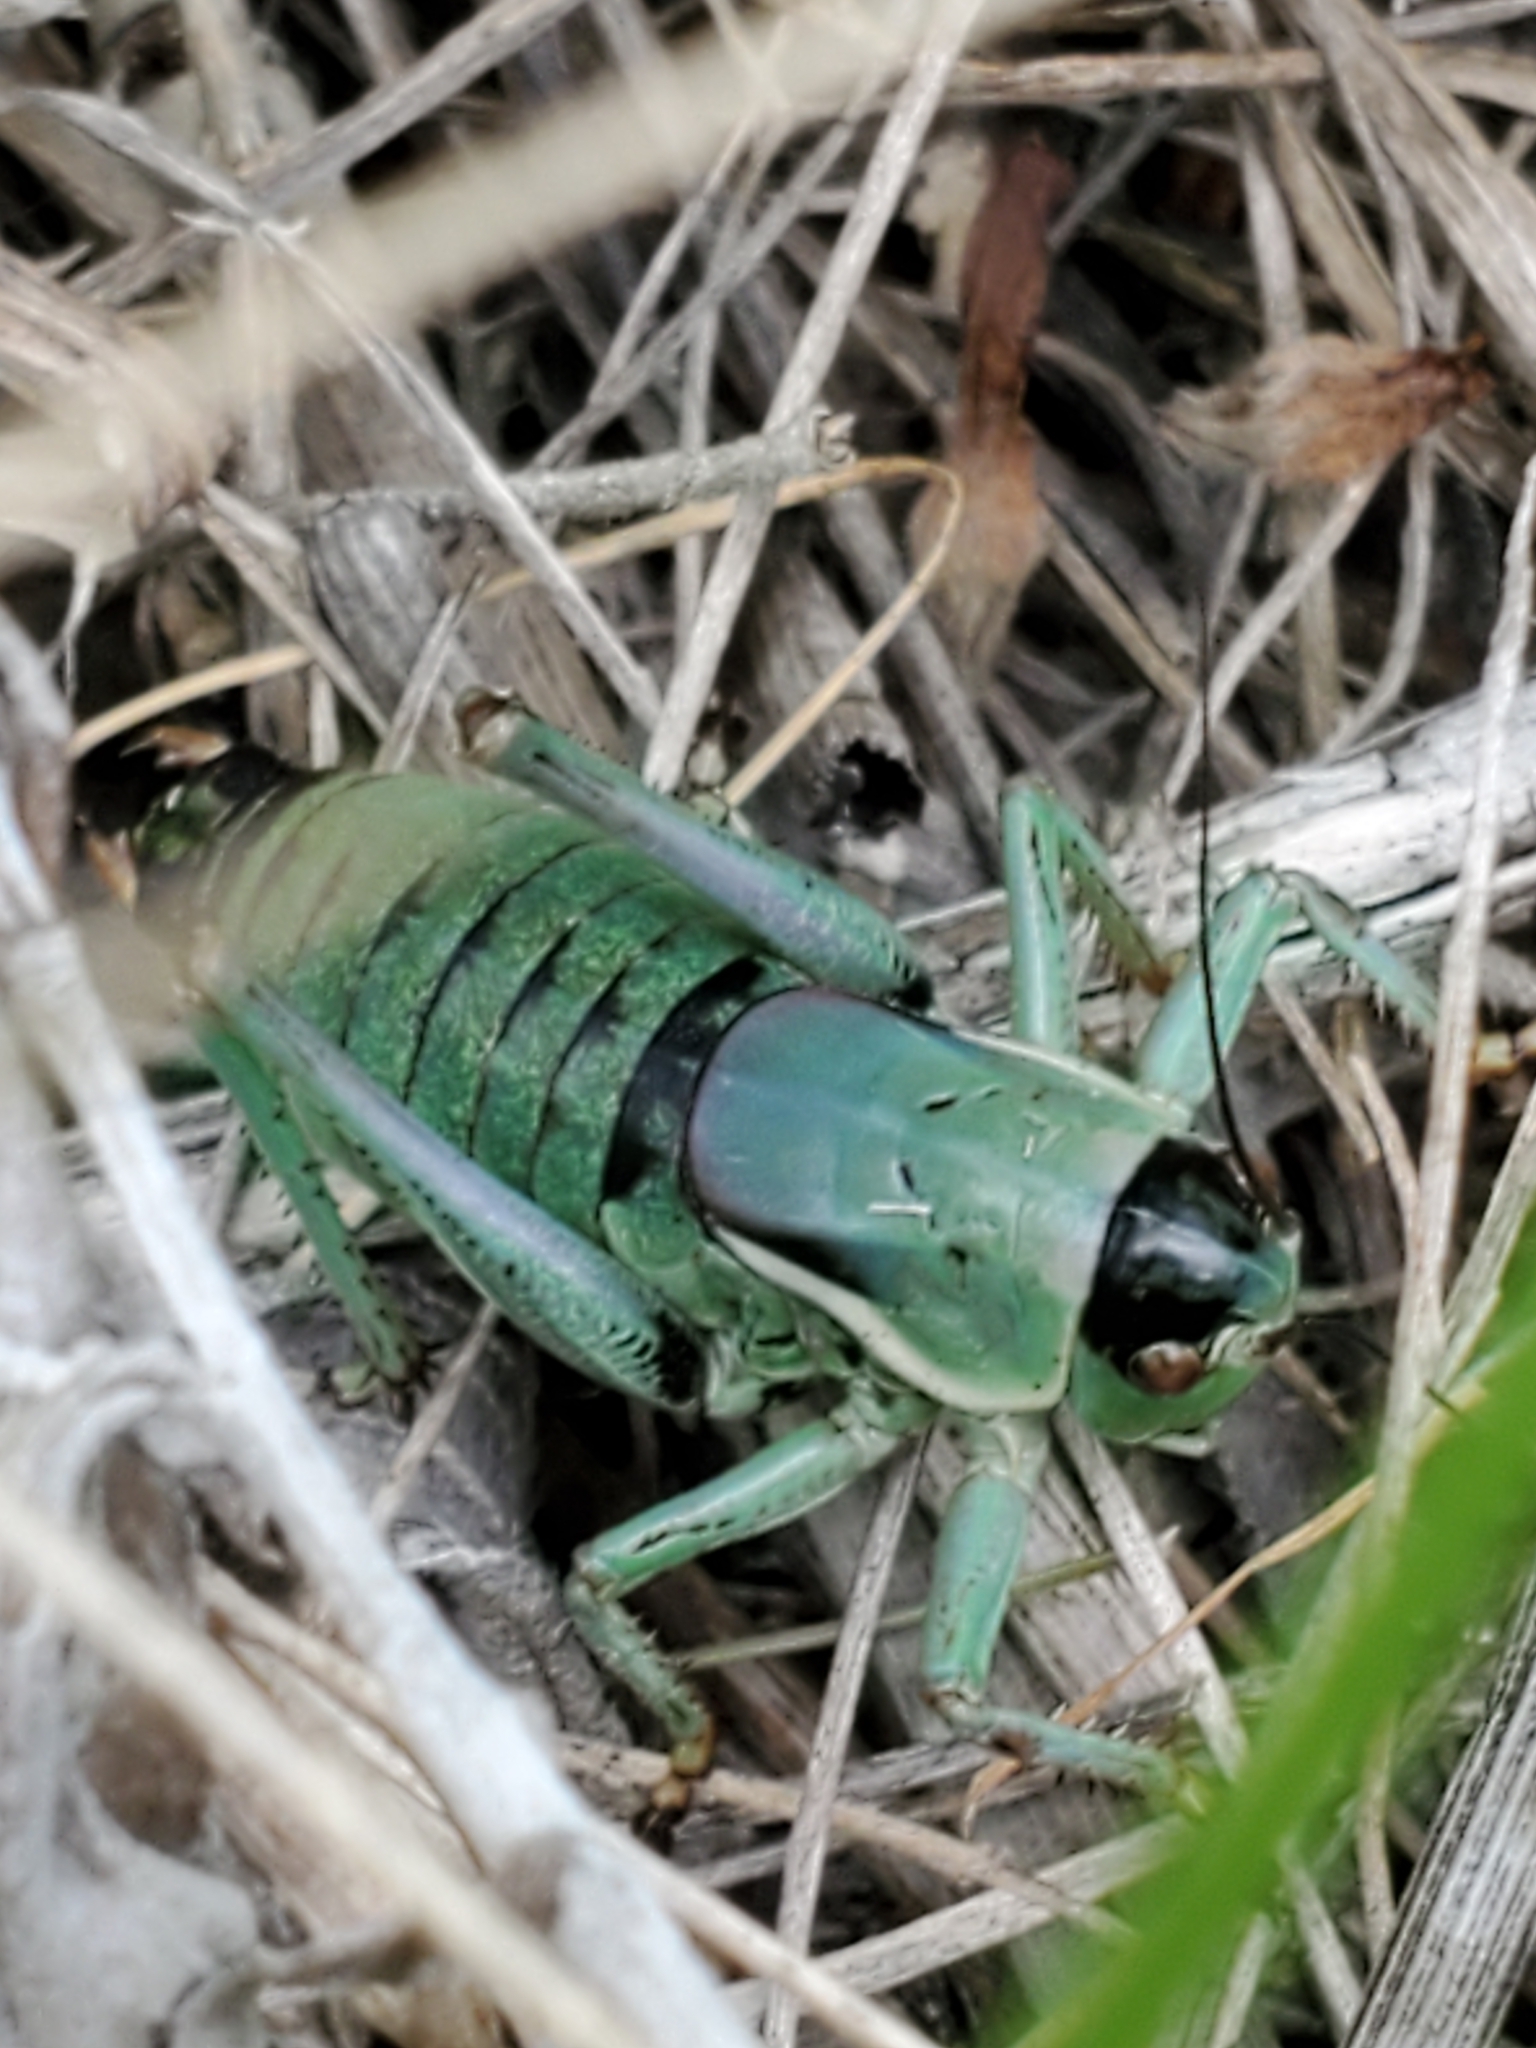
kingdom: Animalia
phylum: Arthropoda
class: Insecta
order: Orthoptera
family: Tettigoniidae
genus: Anabrus
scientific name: Anabrus simplex
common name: Mormon cricket
